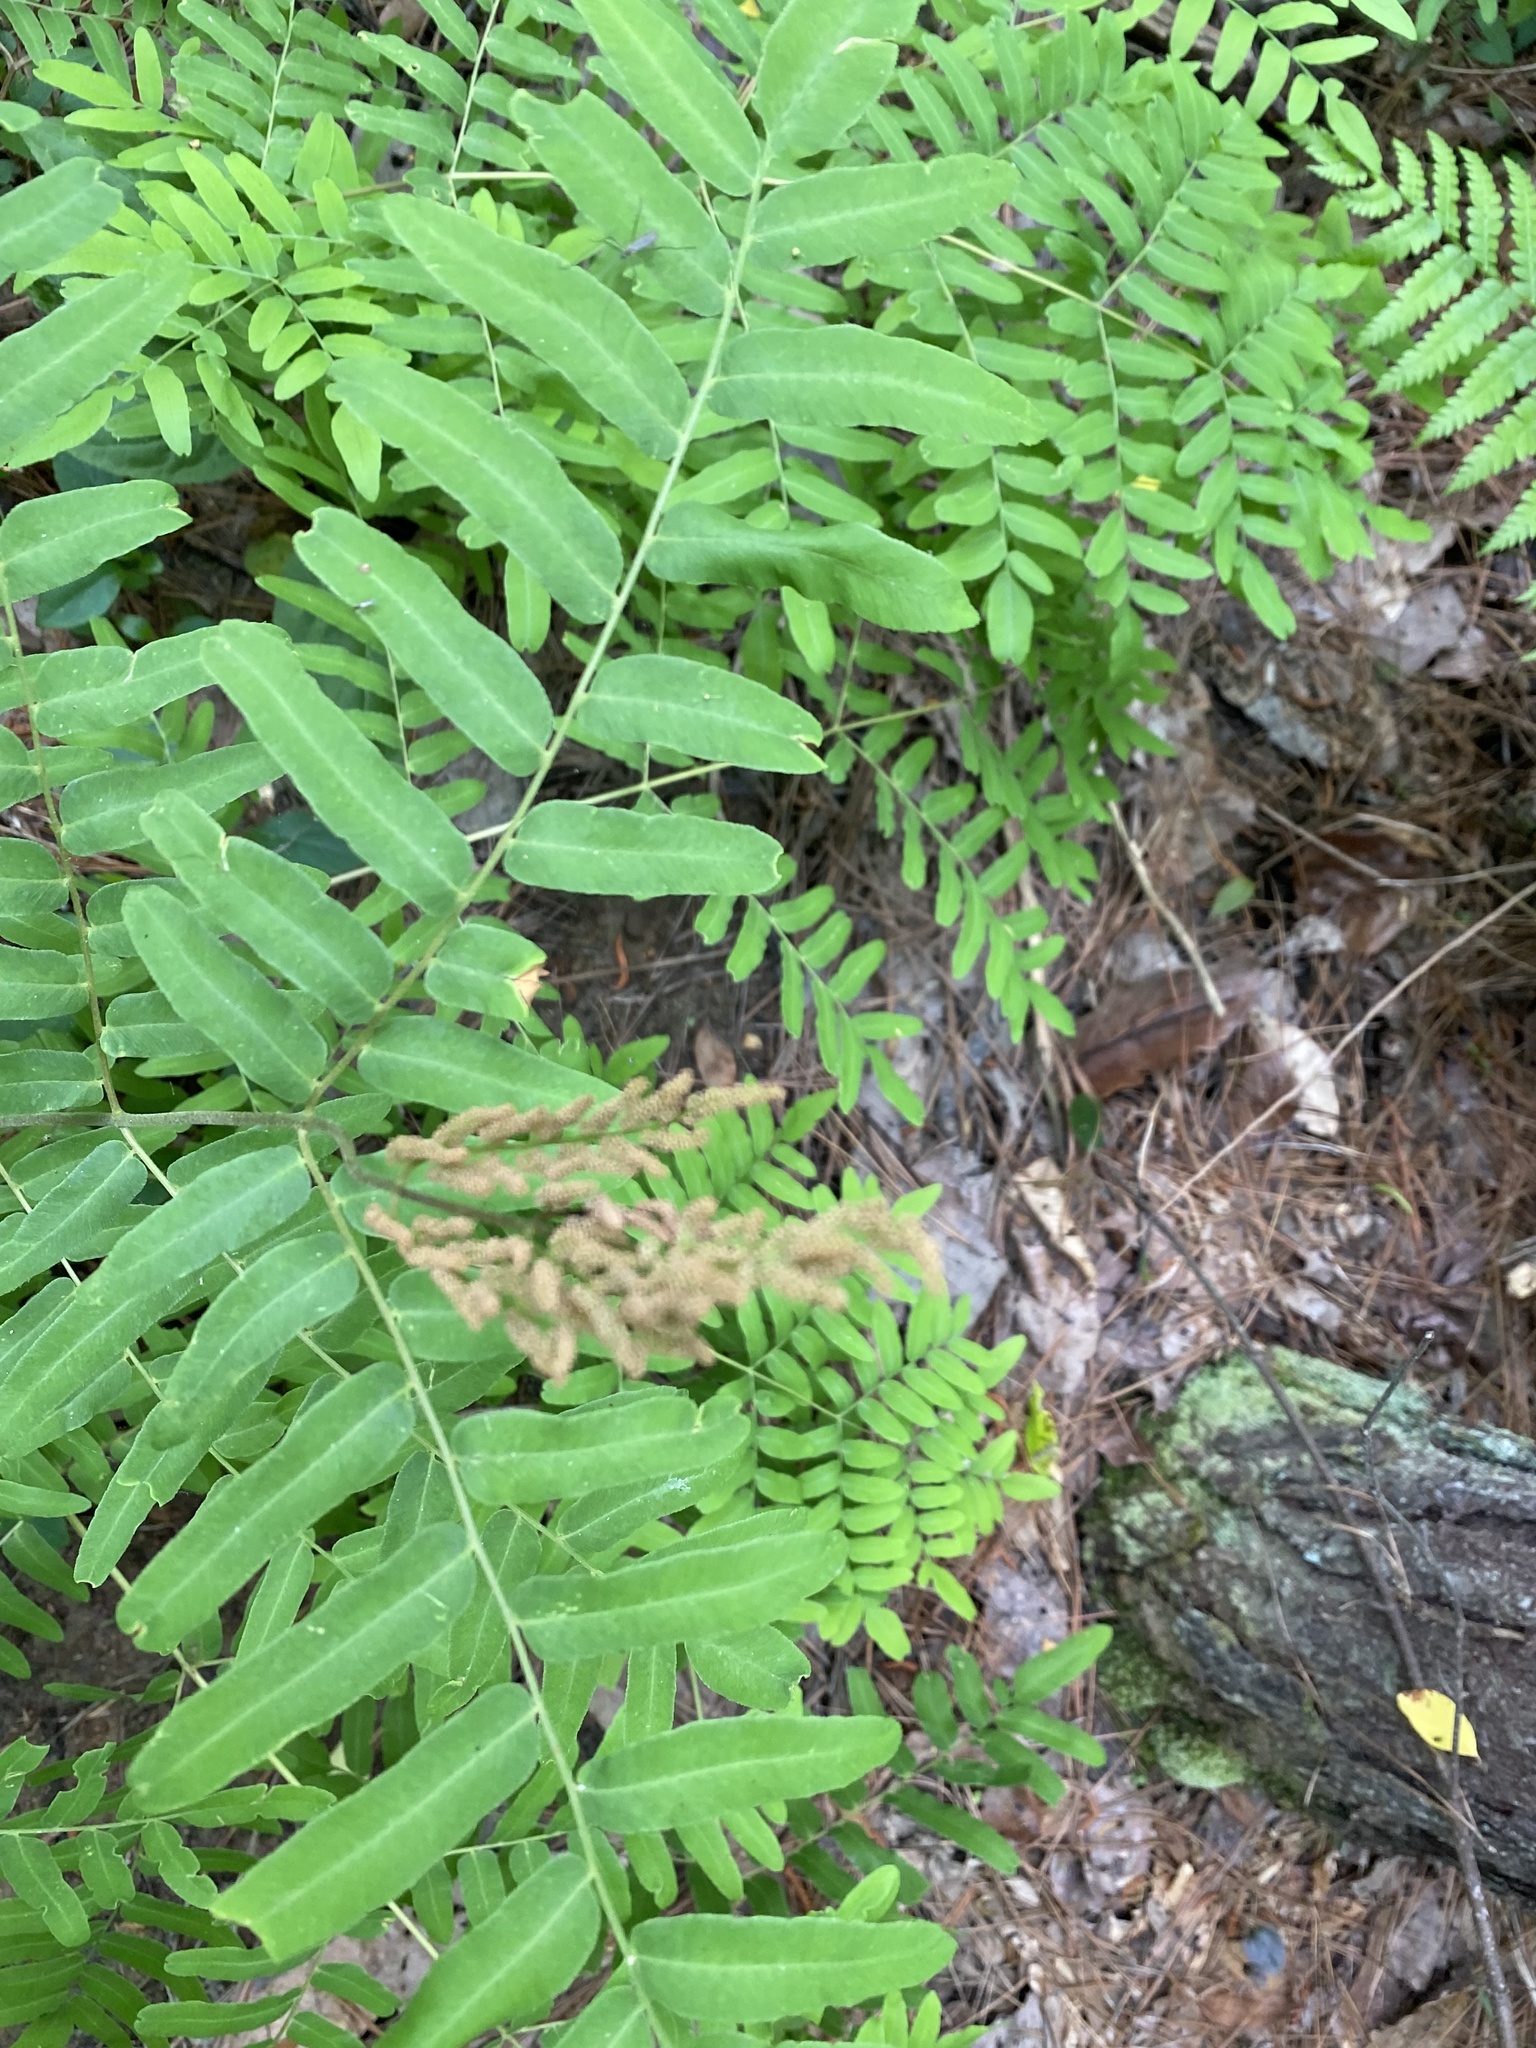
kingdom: Plantae
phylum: Tracheophyta
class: Polypodiopsida
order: Osmundales
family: Osmundaceae
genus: Osmunda
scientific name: Osmunda spectabilis
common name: American royal fern
